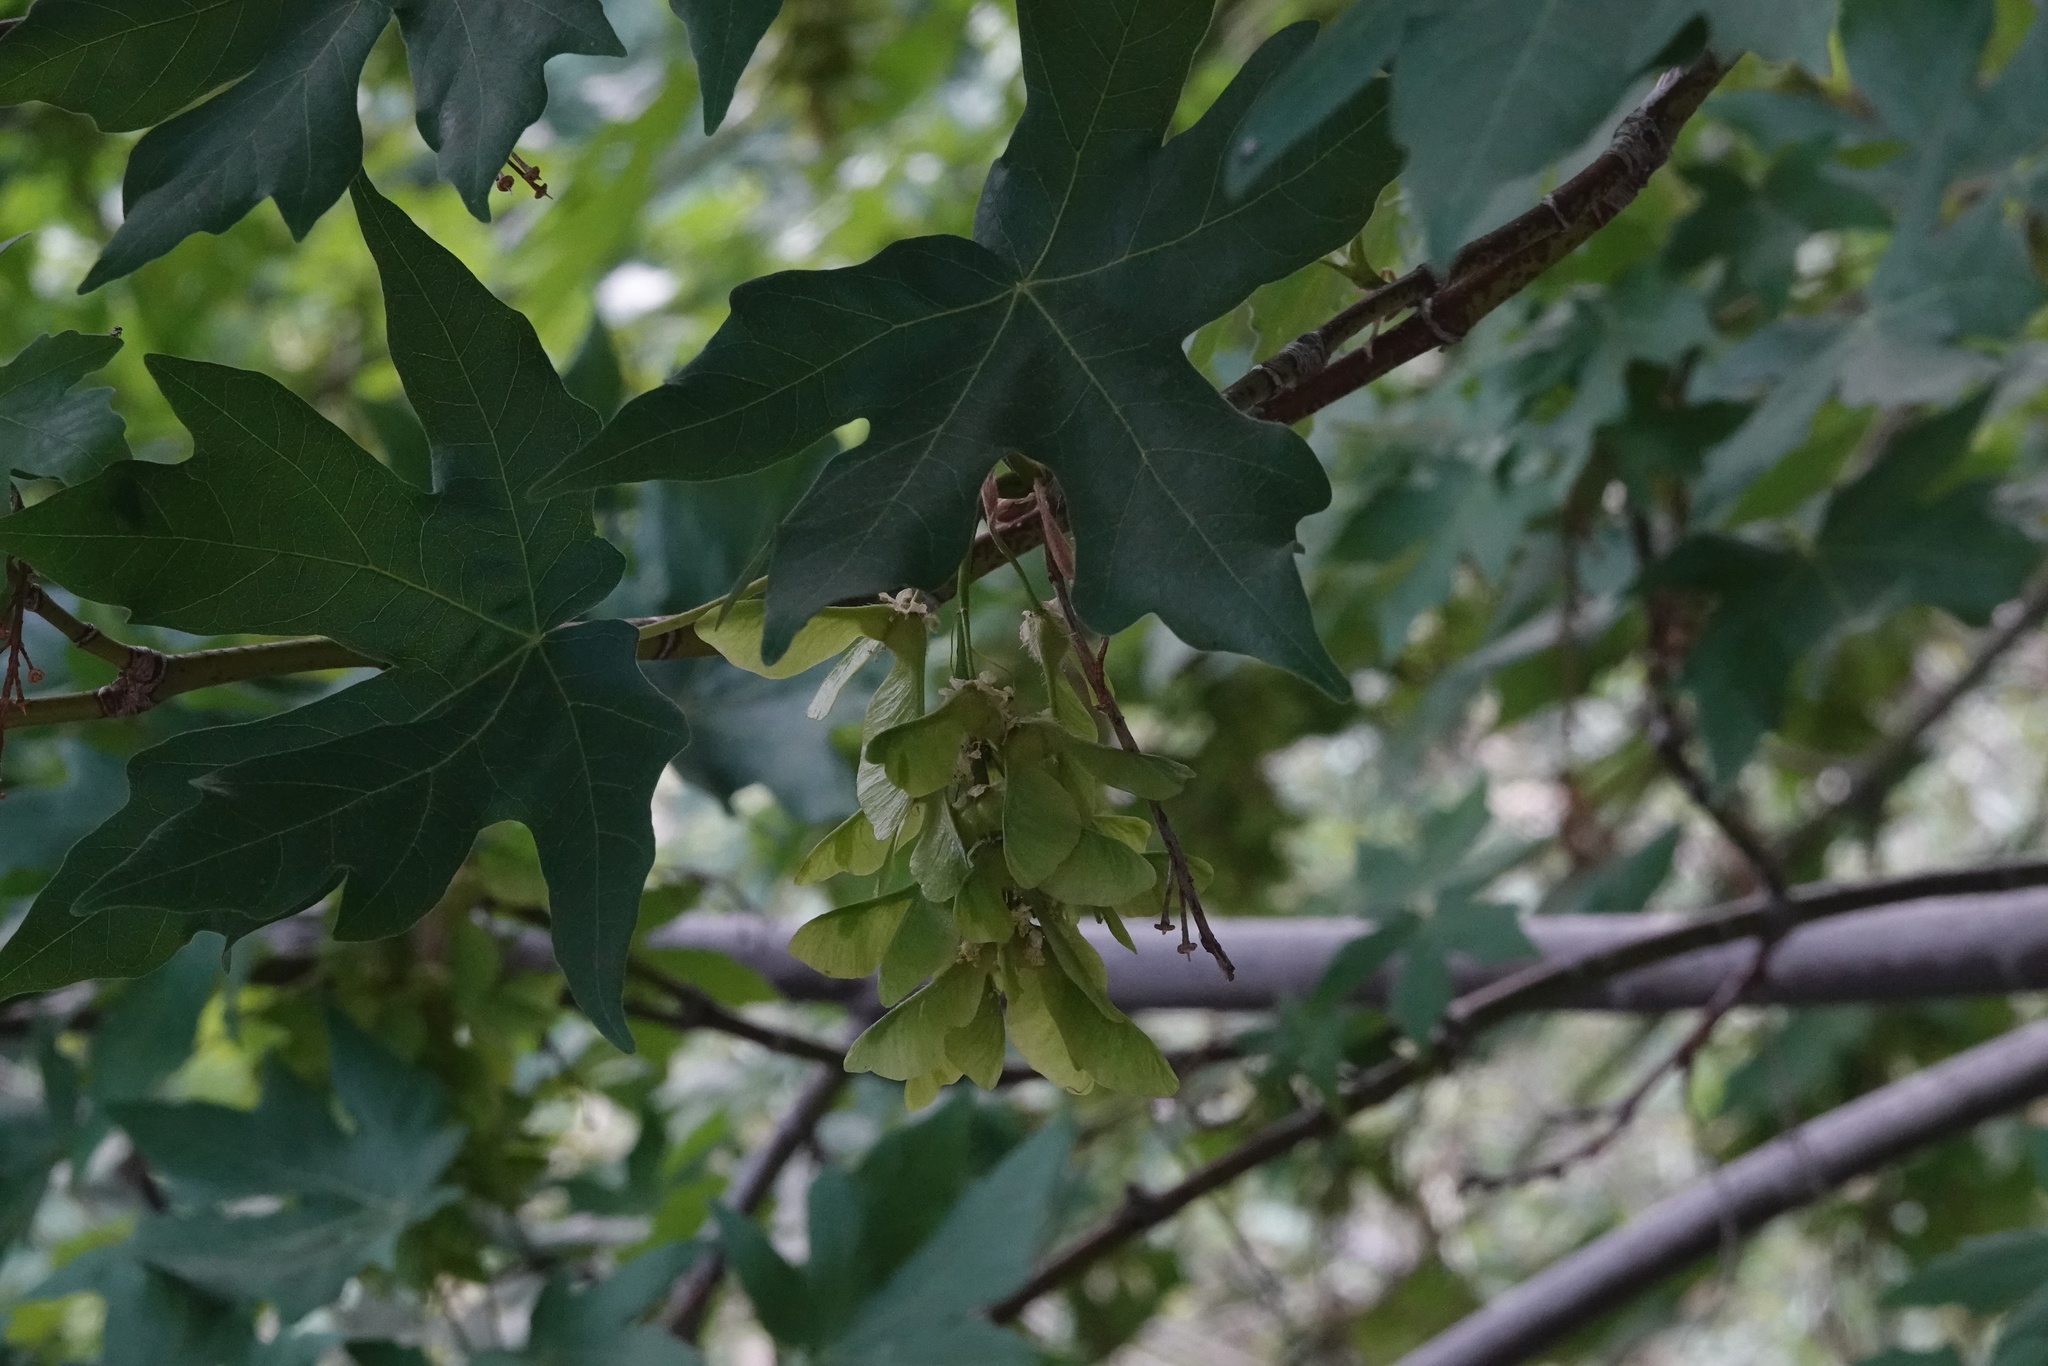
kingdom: Plantae
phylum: Tracheophyta
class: Magnoliopsida
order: Sapindales
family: Sapindaceae
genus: Acer
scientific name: Acer macrophyllum
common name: Oregon maple
